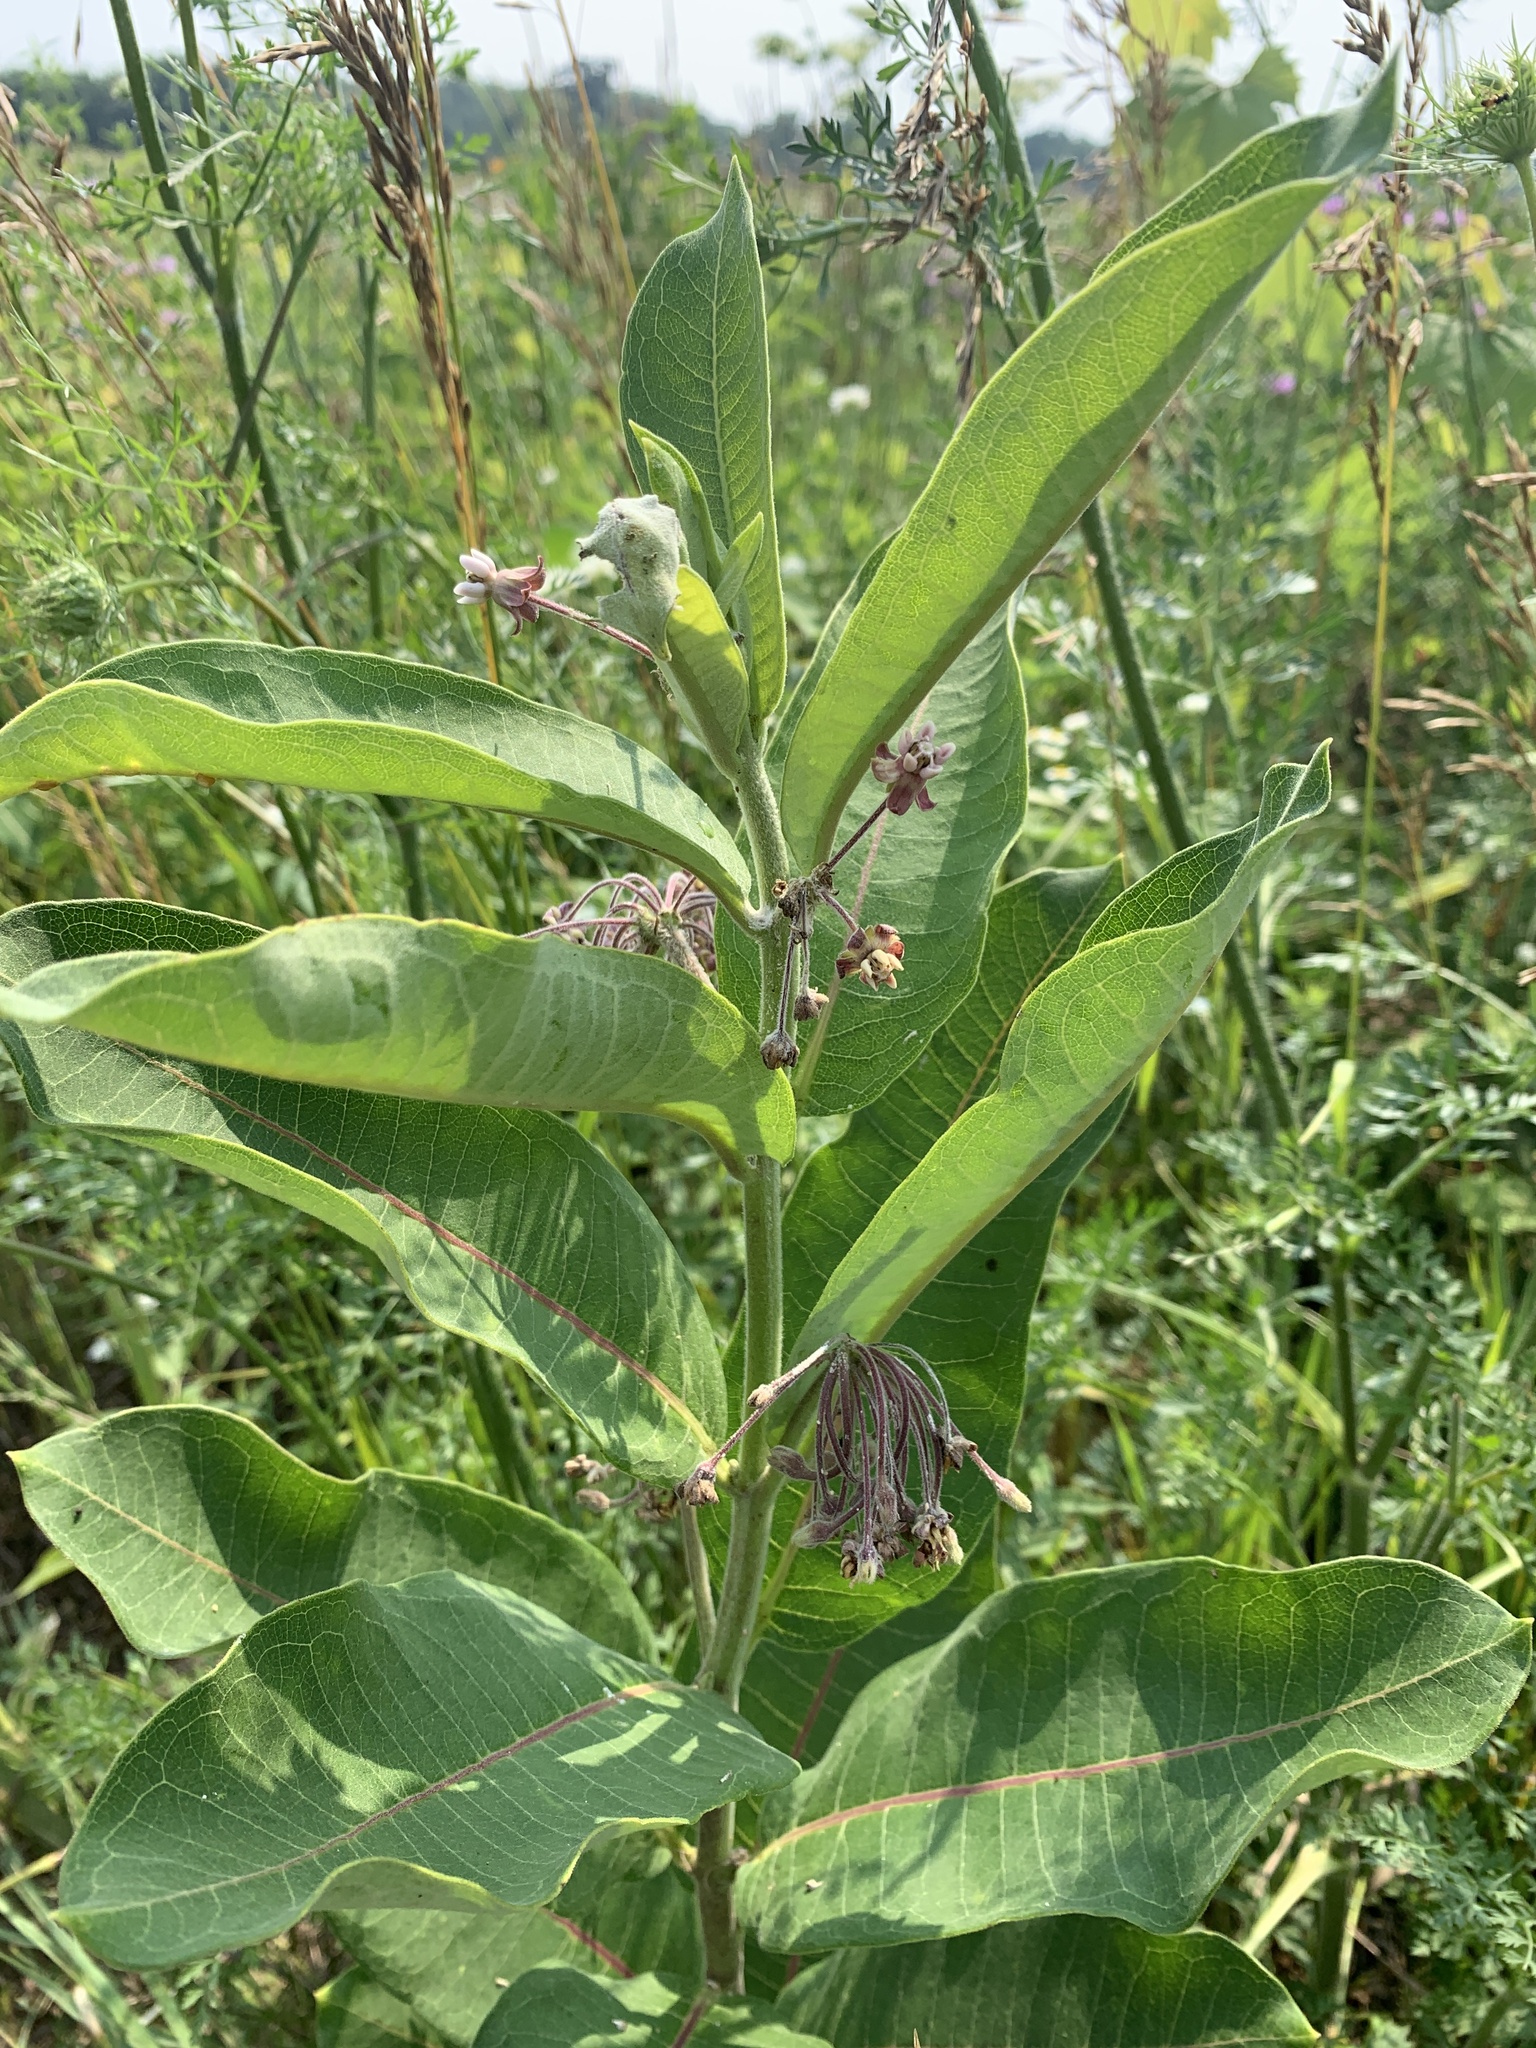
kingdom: Plantae
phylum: Tracheophyta
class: Magnoliopsida
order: Gentianales
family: Apocynaceae
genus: Asclepias
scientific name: Asclepias syriaca
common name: Common milkweed
